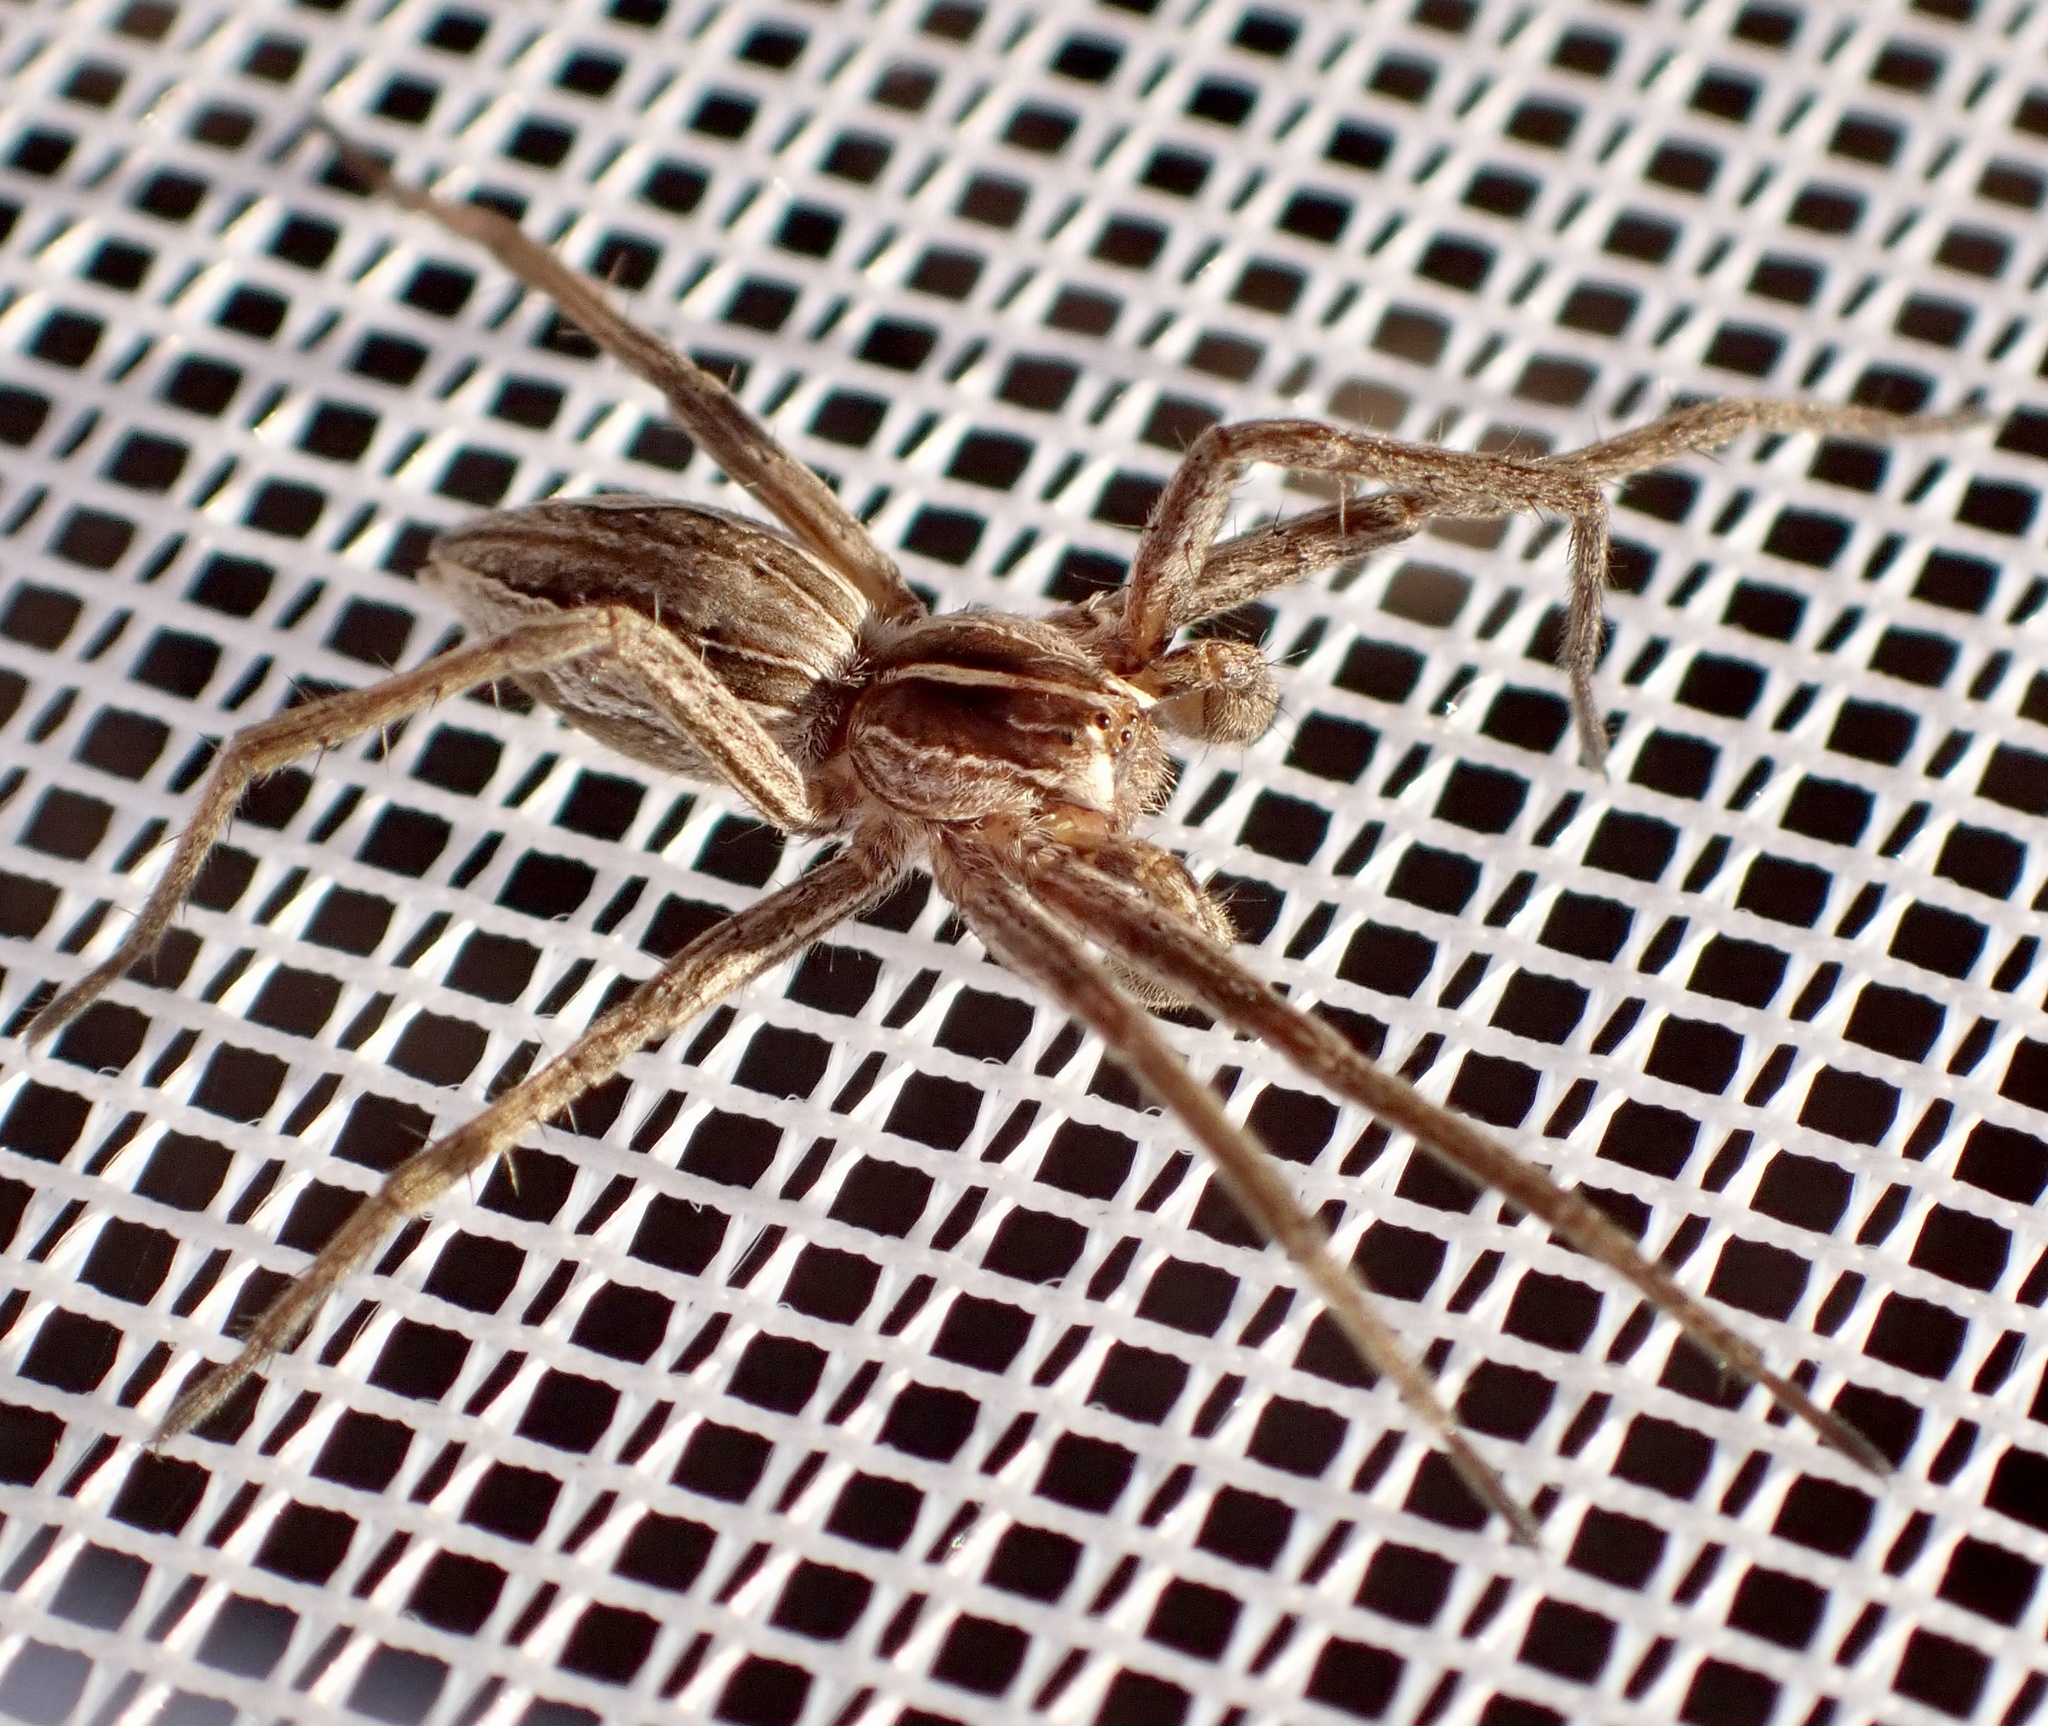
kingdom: Animalia
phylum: Arthropoda
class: Arachnida
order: Araneae
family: Pisauridae
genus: Pisaura
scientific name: Pisaura mirabilis
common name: Tent spider
